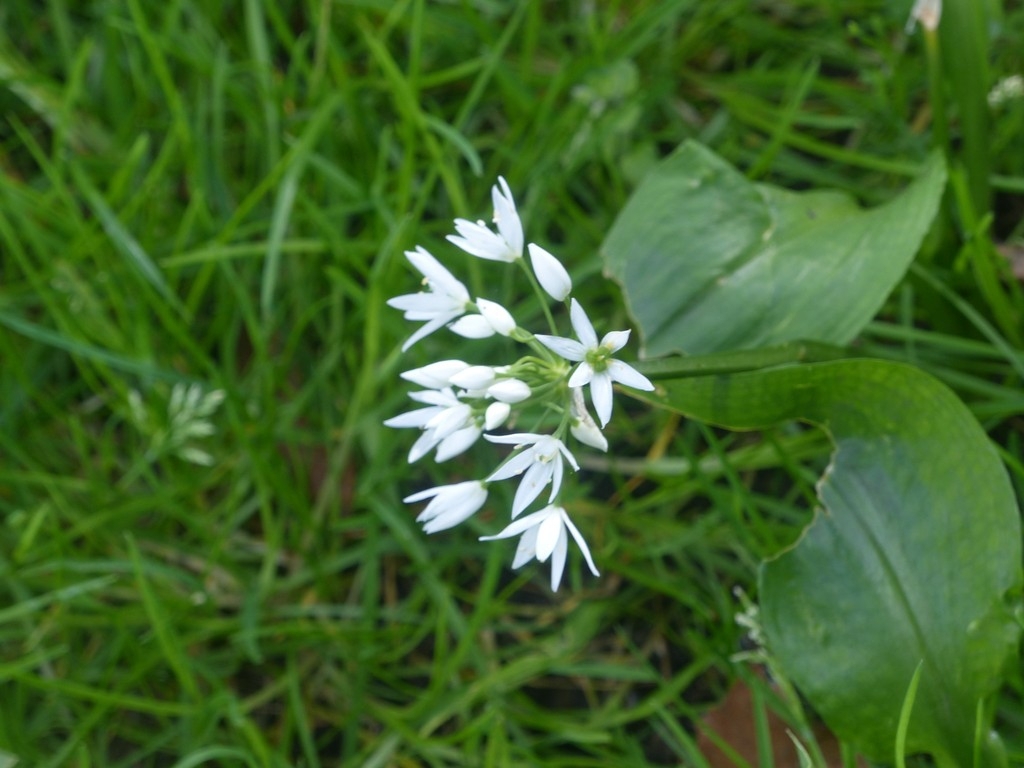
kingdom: Plantae
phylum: Tracheophyta
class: Liliopsida
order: Asparagales
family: Amaryllidaceae
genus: Allium
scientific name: Allium ursinum
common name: Ramsons
